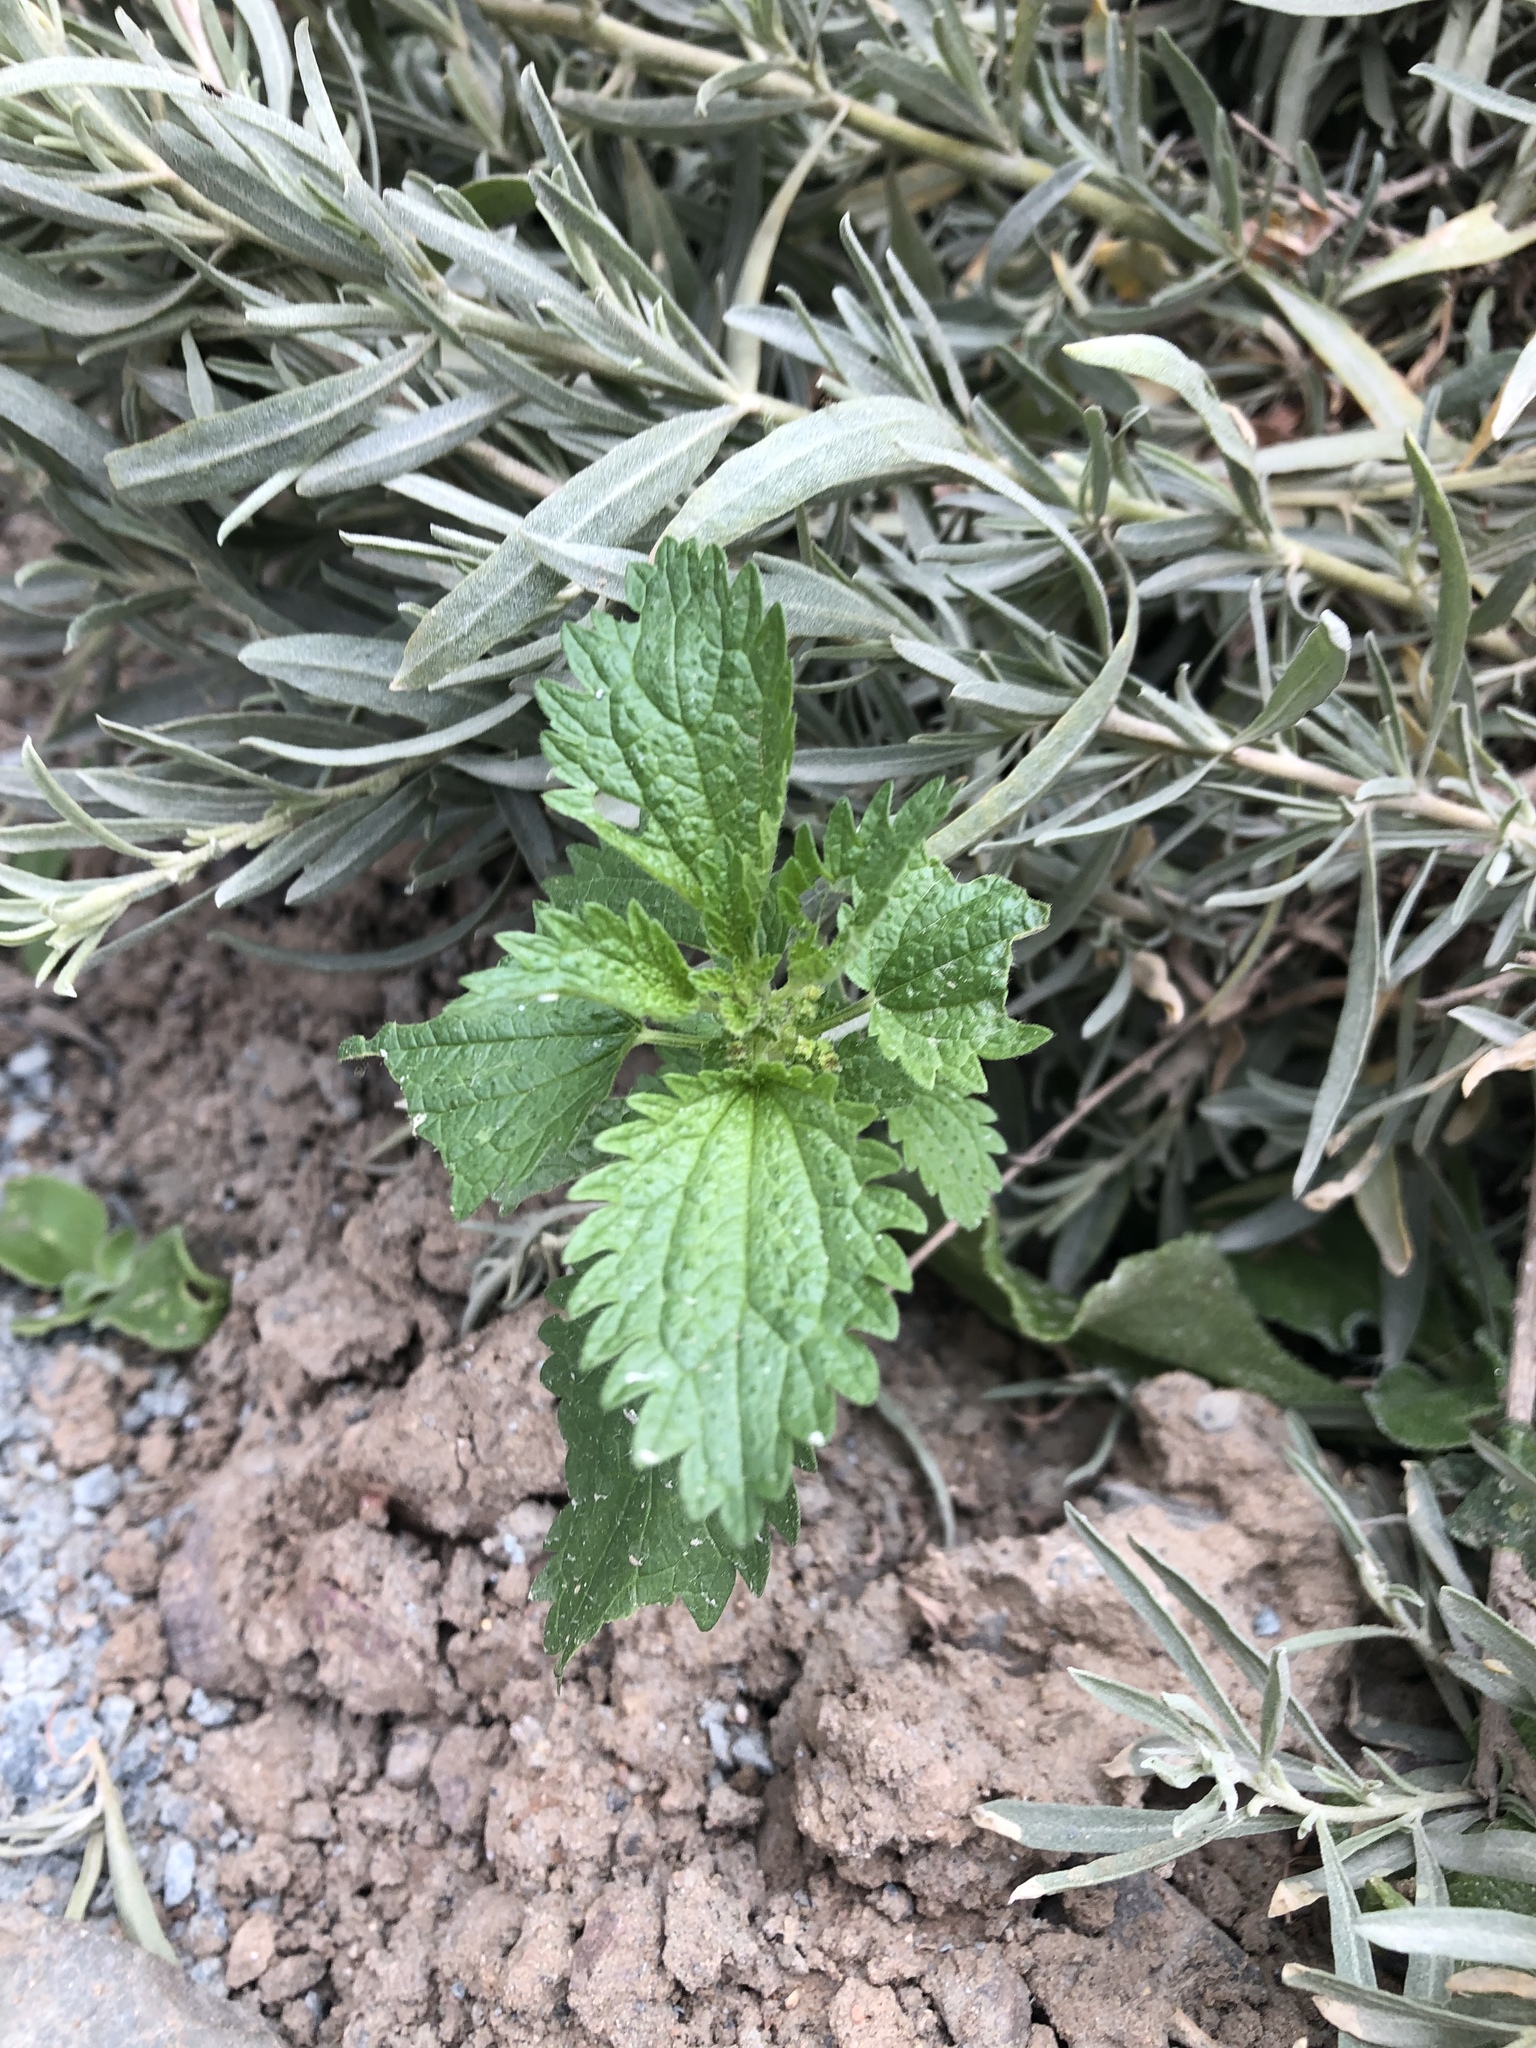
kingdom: Plantae
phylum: Tracheophyta
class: Magnoliopsida
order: Rosales
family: Urticaceae
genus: Urtica
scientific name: Urtica urens
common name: Dwarf nettle
